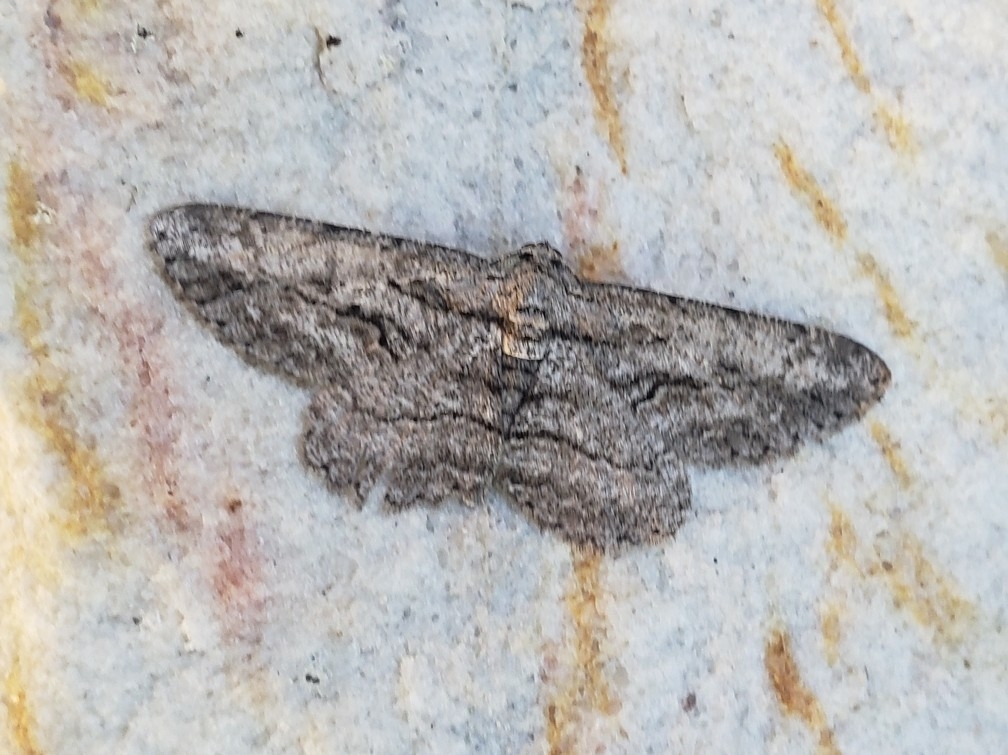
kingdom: Animalia
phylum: Arthropoda
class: Insecta
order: Lepidoptera
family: Geometridae
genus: Anavitrinella
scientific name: Anavitrinella pampinaria
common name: Common gray
